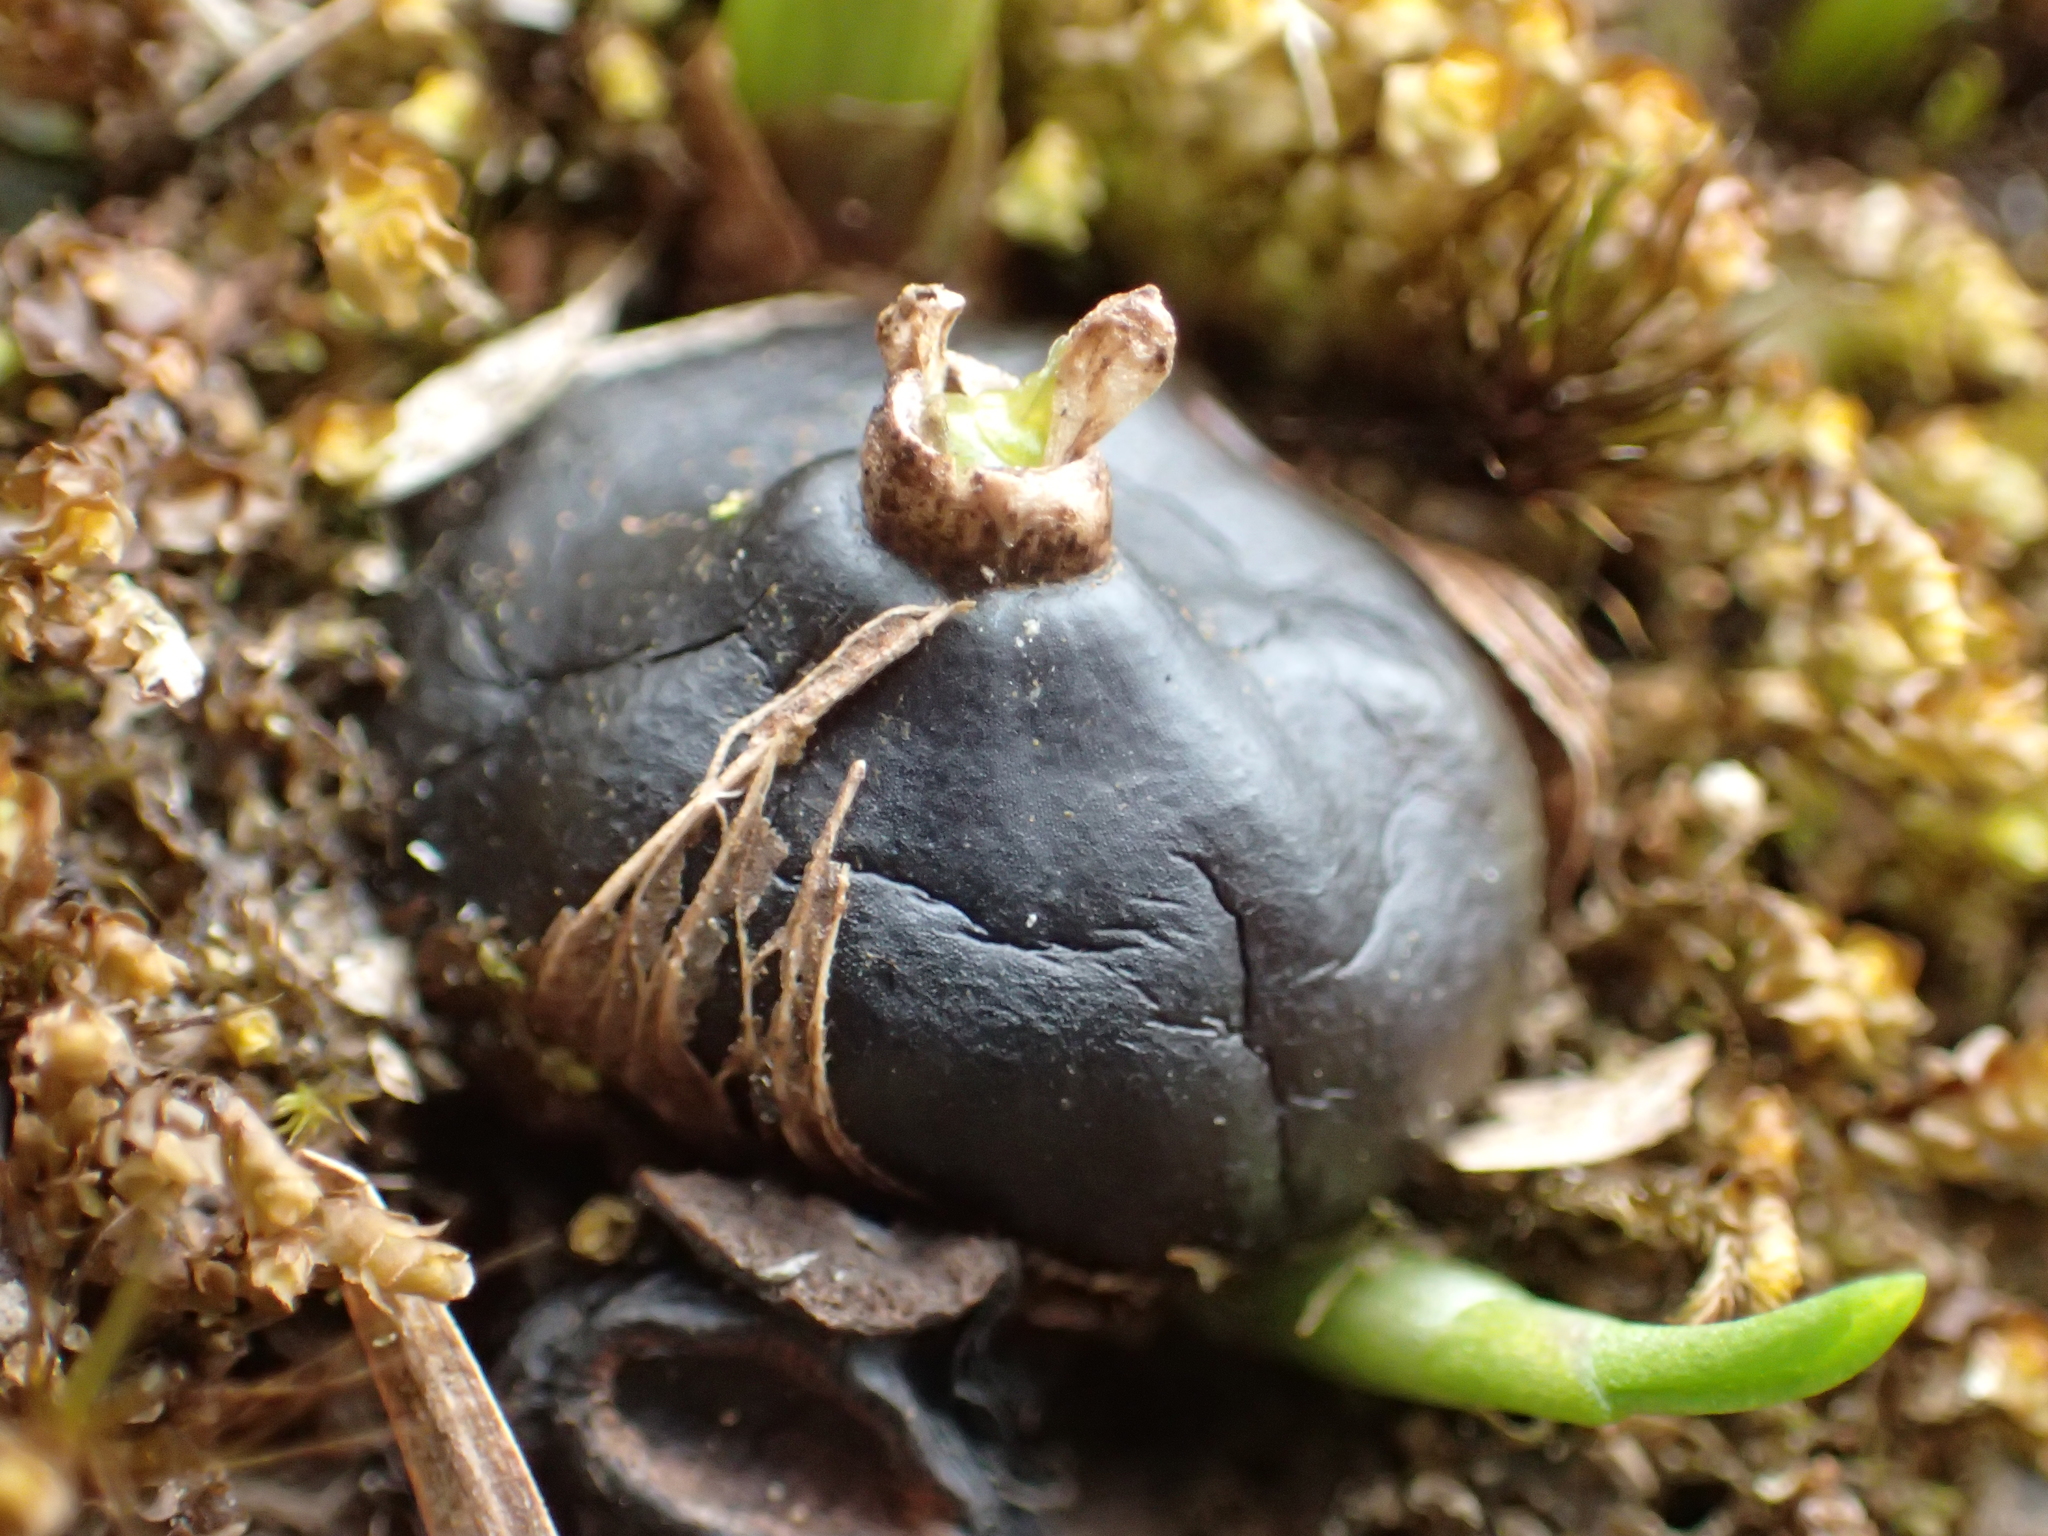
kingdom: Plantae
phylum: Tracheophyta
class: Liliopsida
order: Asparagales
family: Orchidaceae
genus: Pleione
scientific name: Pleione formosana
